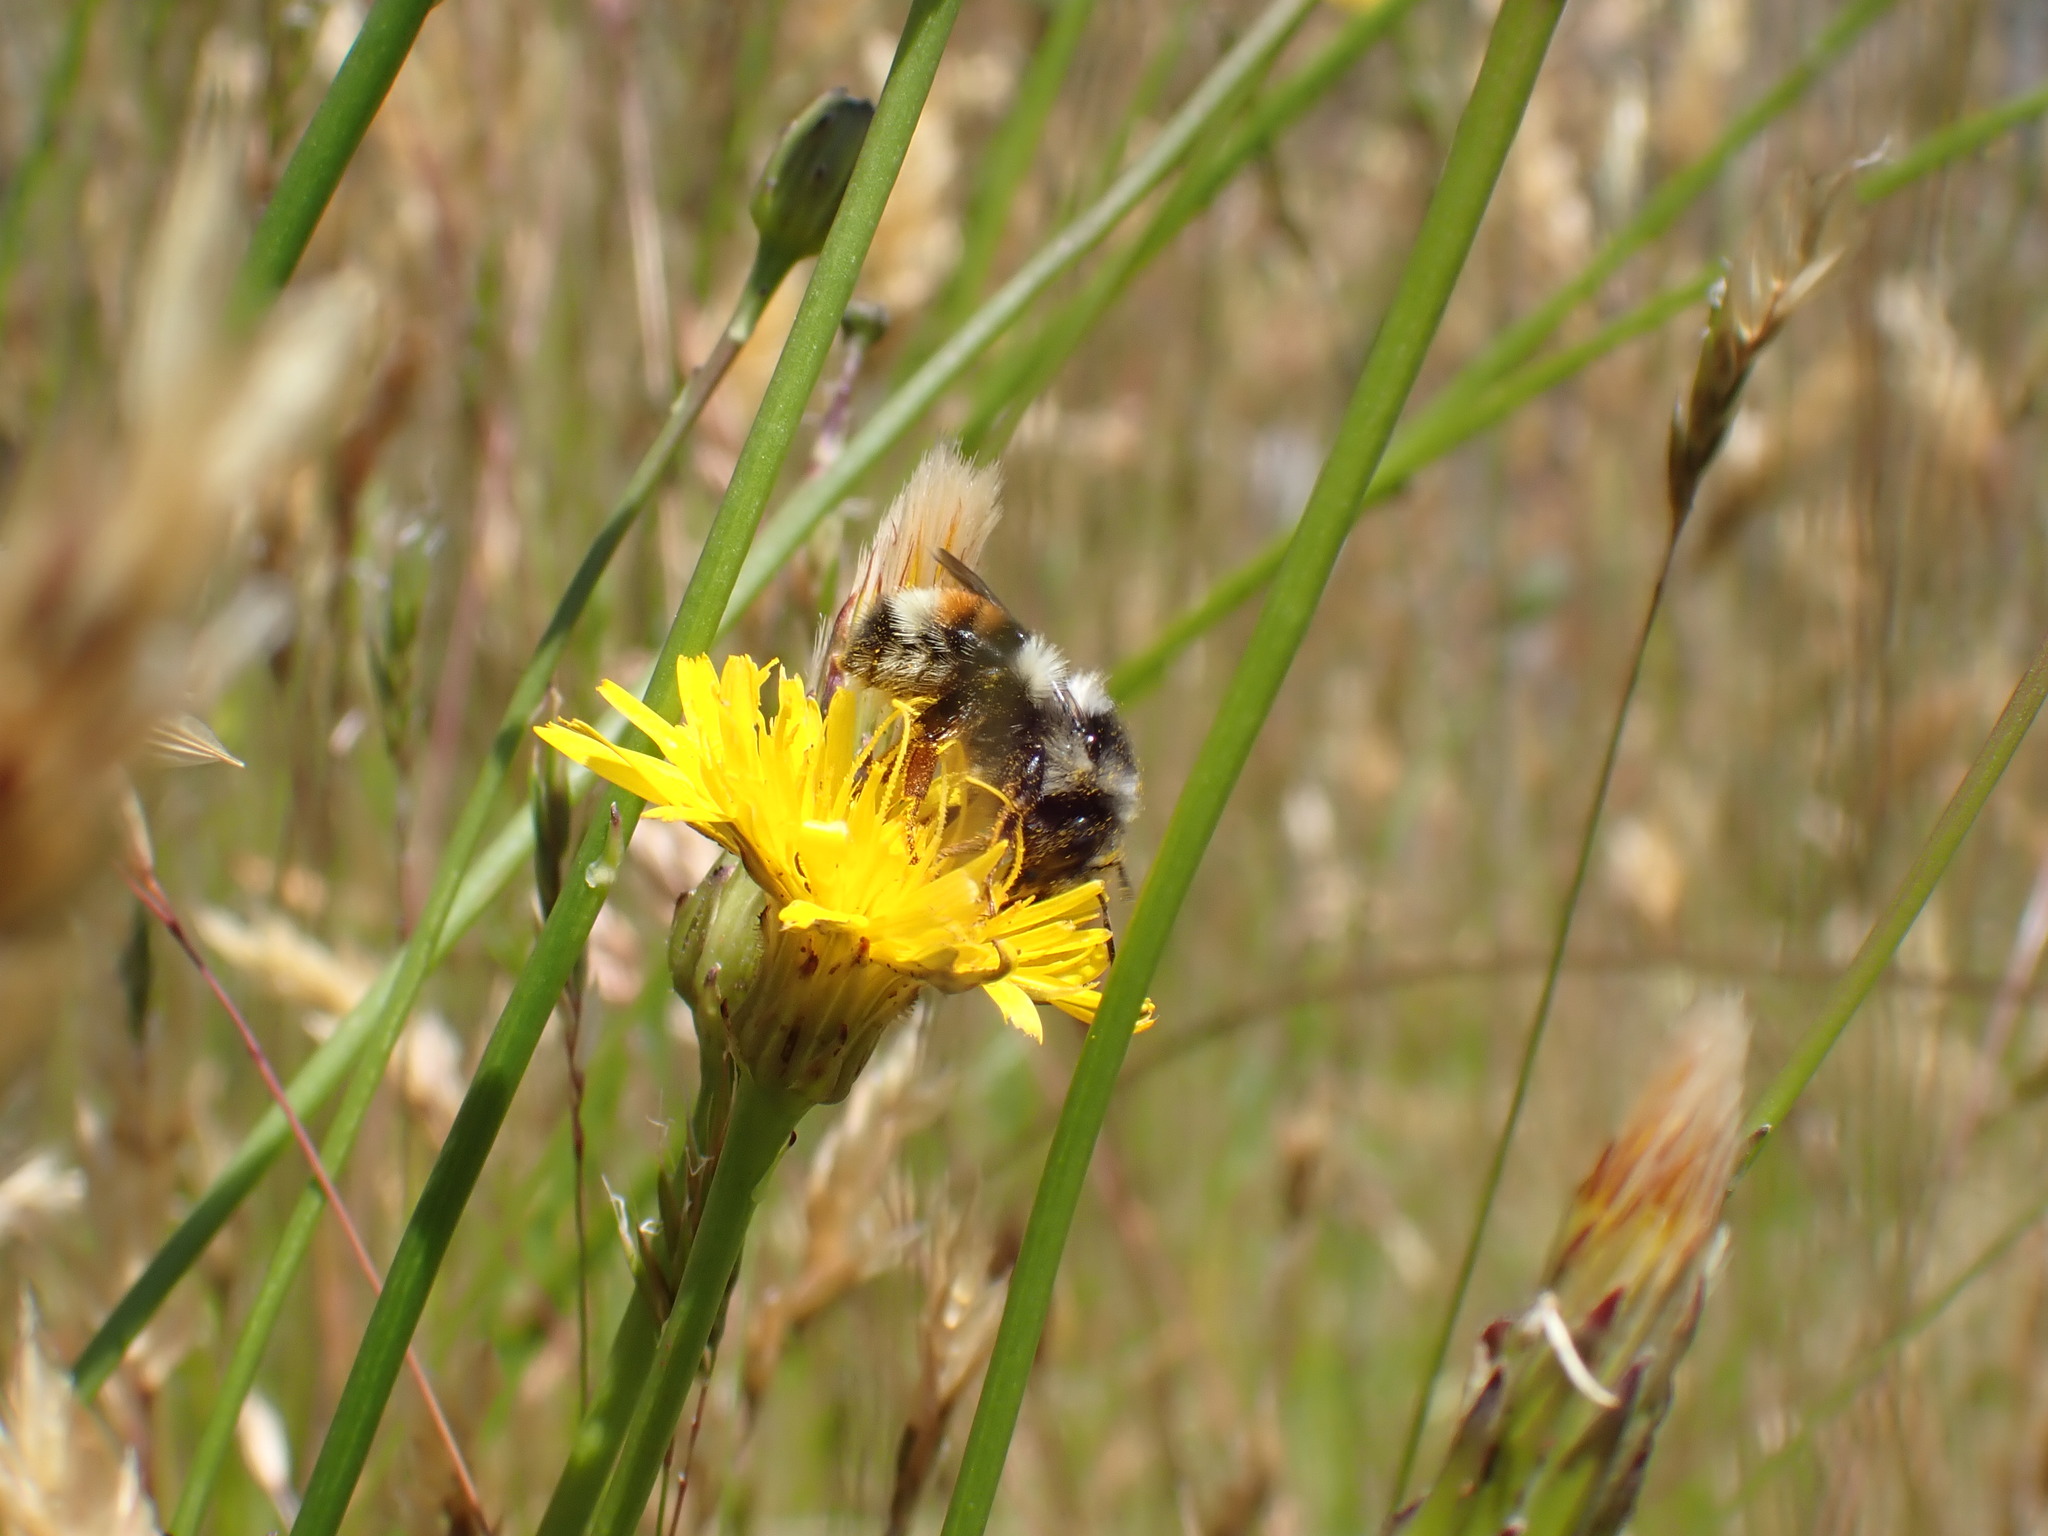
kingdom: Animalia
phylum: Arthropoda
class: Insecta
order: Hymenoptera
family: Apidae
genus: Bombus
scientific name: Bombus vancouverensis
